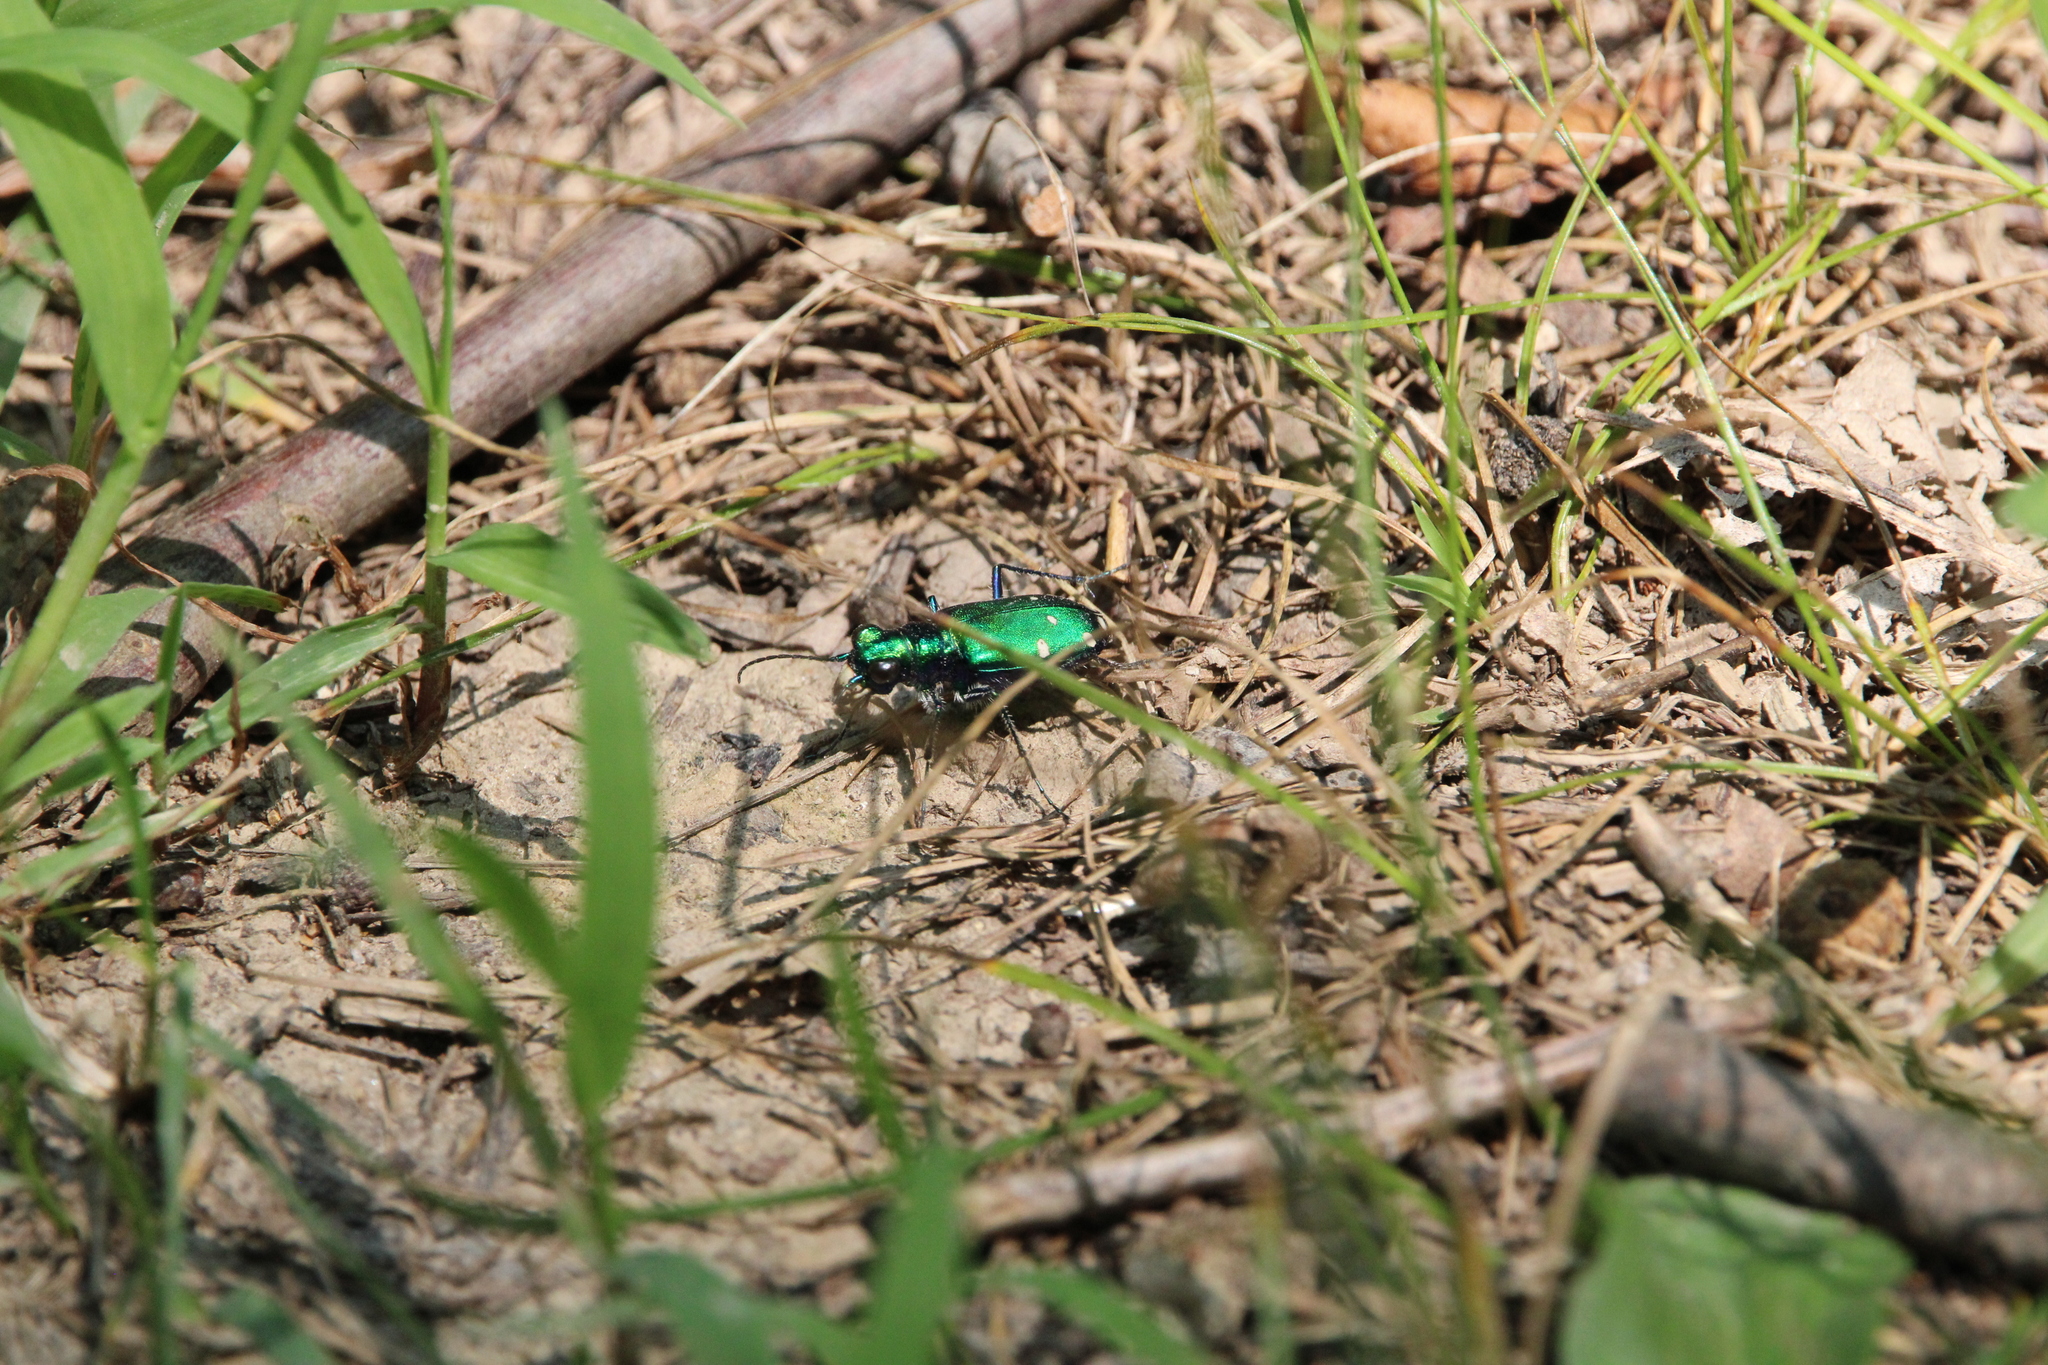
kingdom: Animalia
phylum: Arthropoda
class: Insecta
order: Coleoptera
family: Carabidae
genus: Cicindela
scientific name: Cicindela sexguttata
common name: Six-spotted tiger beetle
